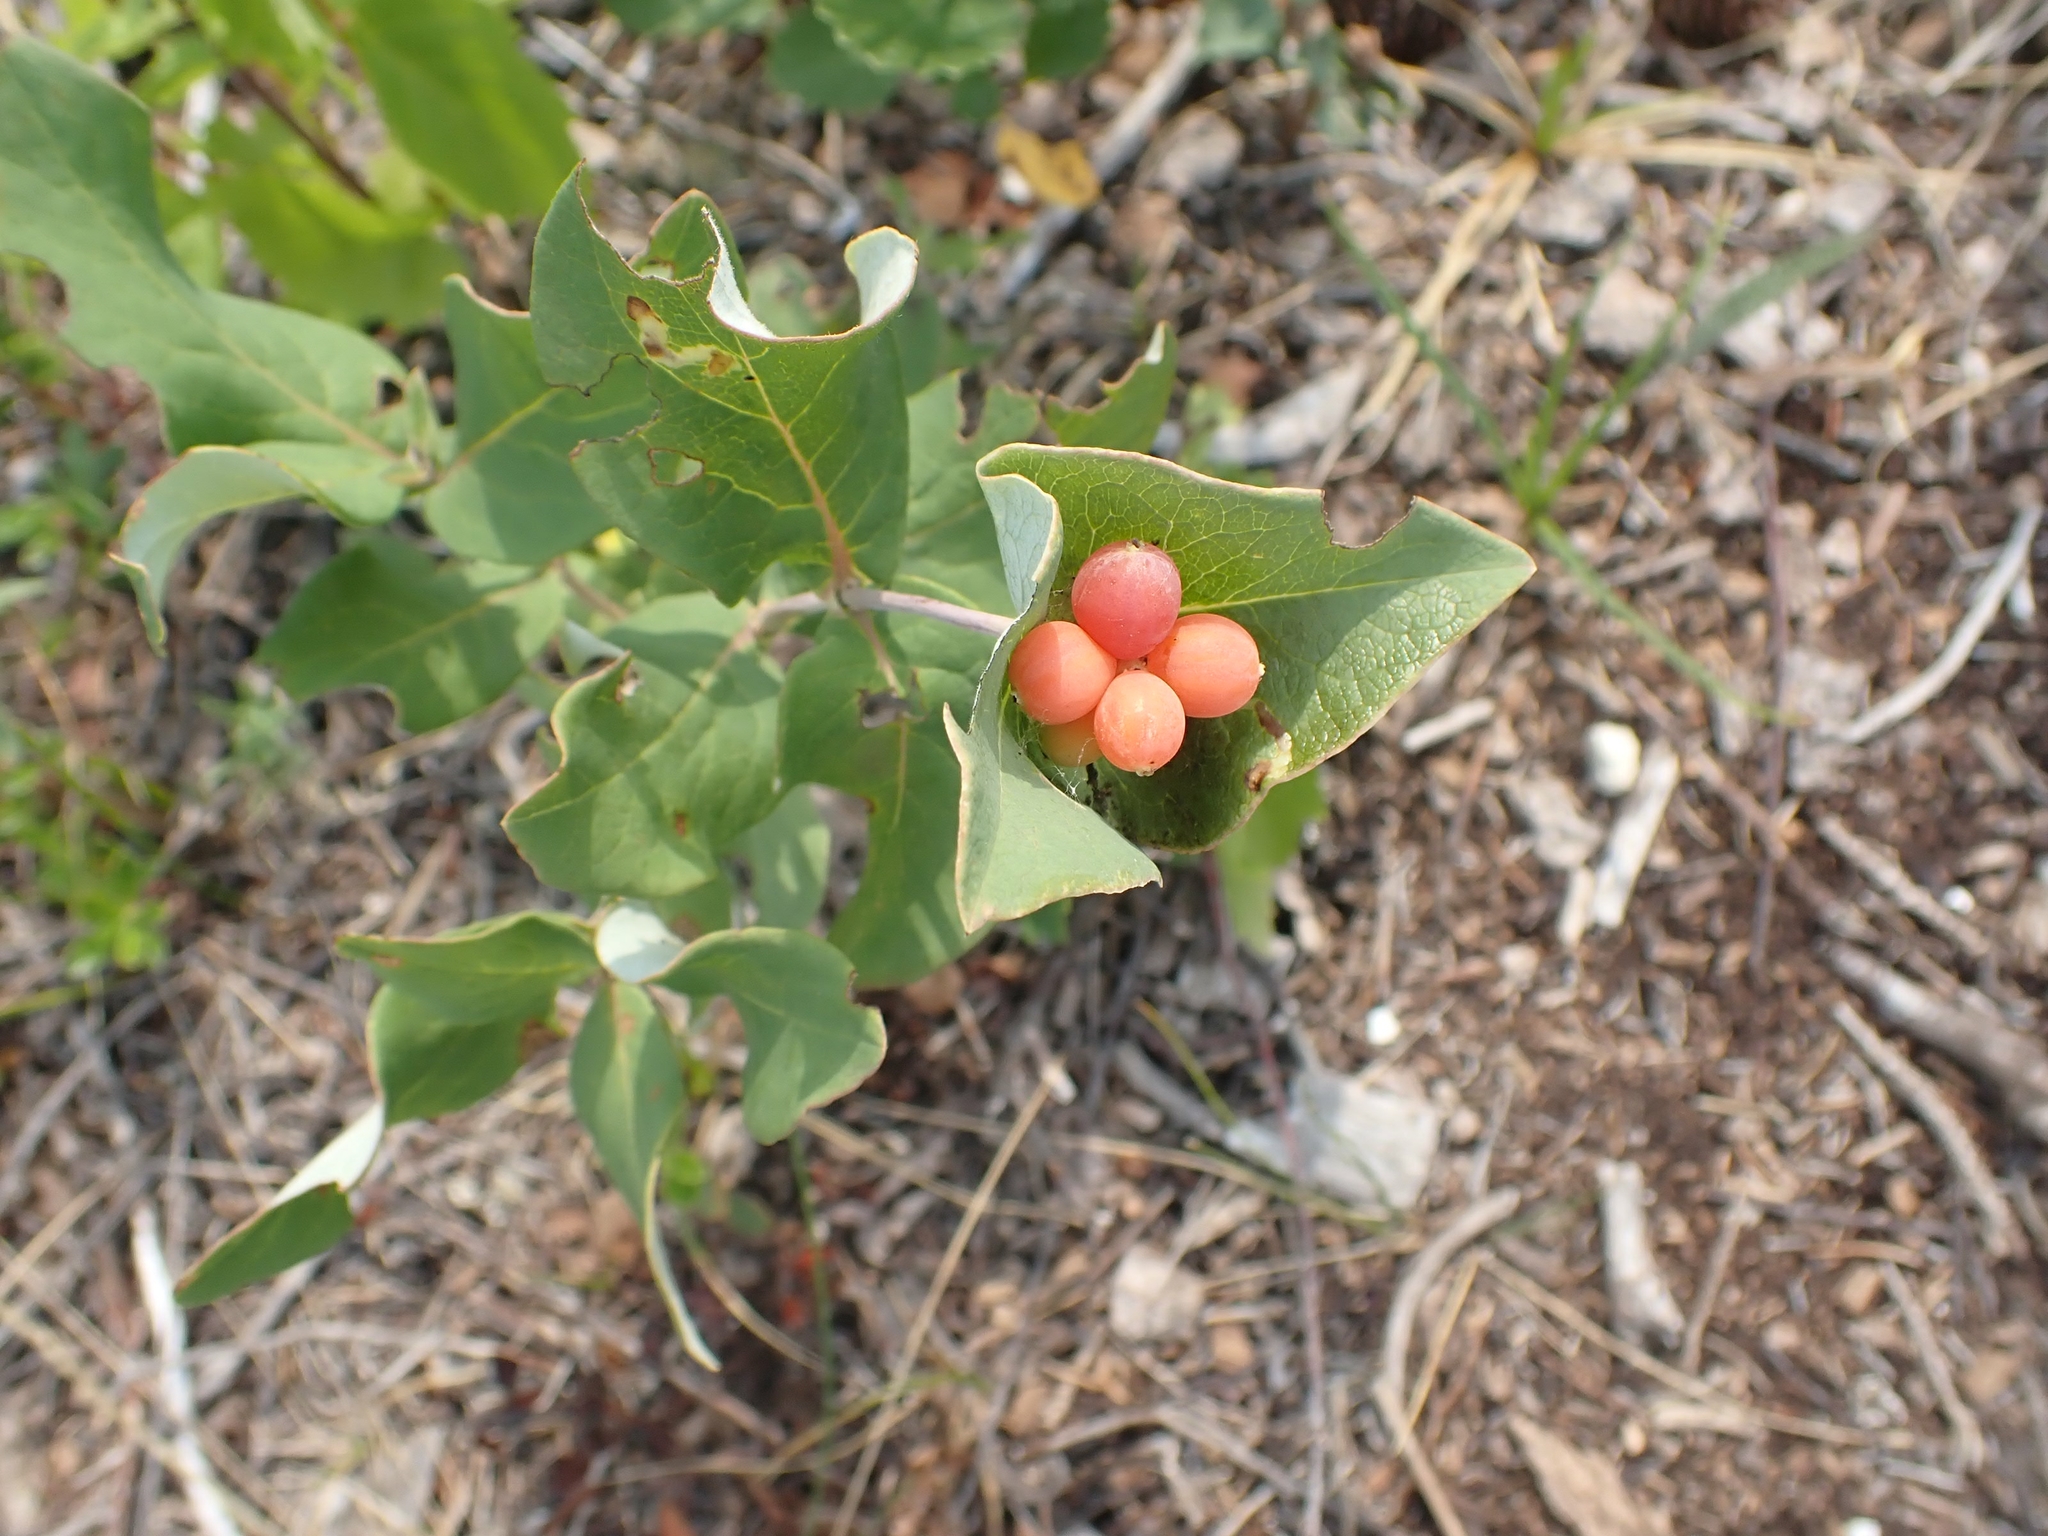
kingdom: Plantae
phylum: Tracheophyta
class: Magnoliopsida
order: Dipsacales
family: Caprifoliaceae
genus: Lonicera
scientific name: Lonicera dioica
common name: Limber honeysuckle
